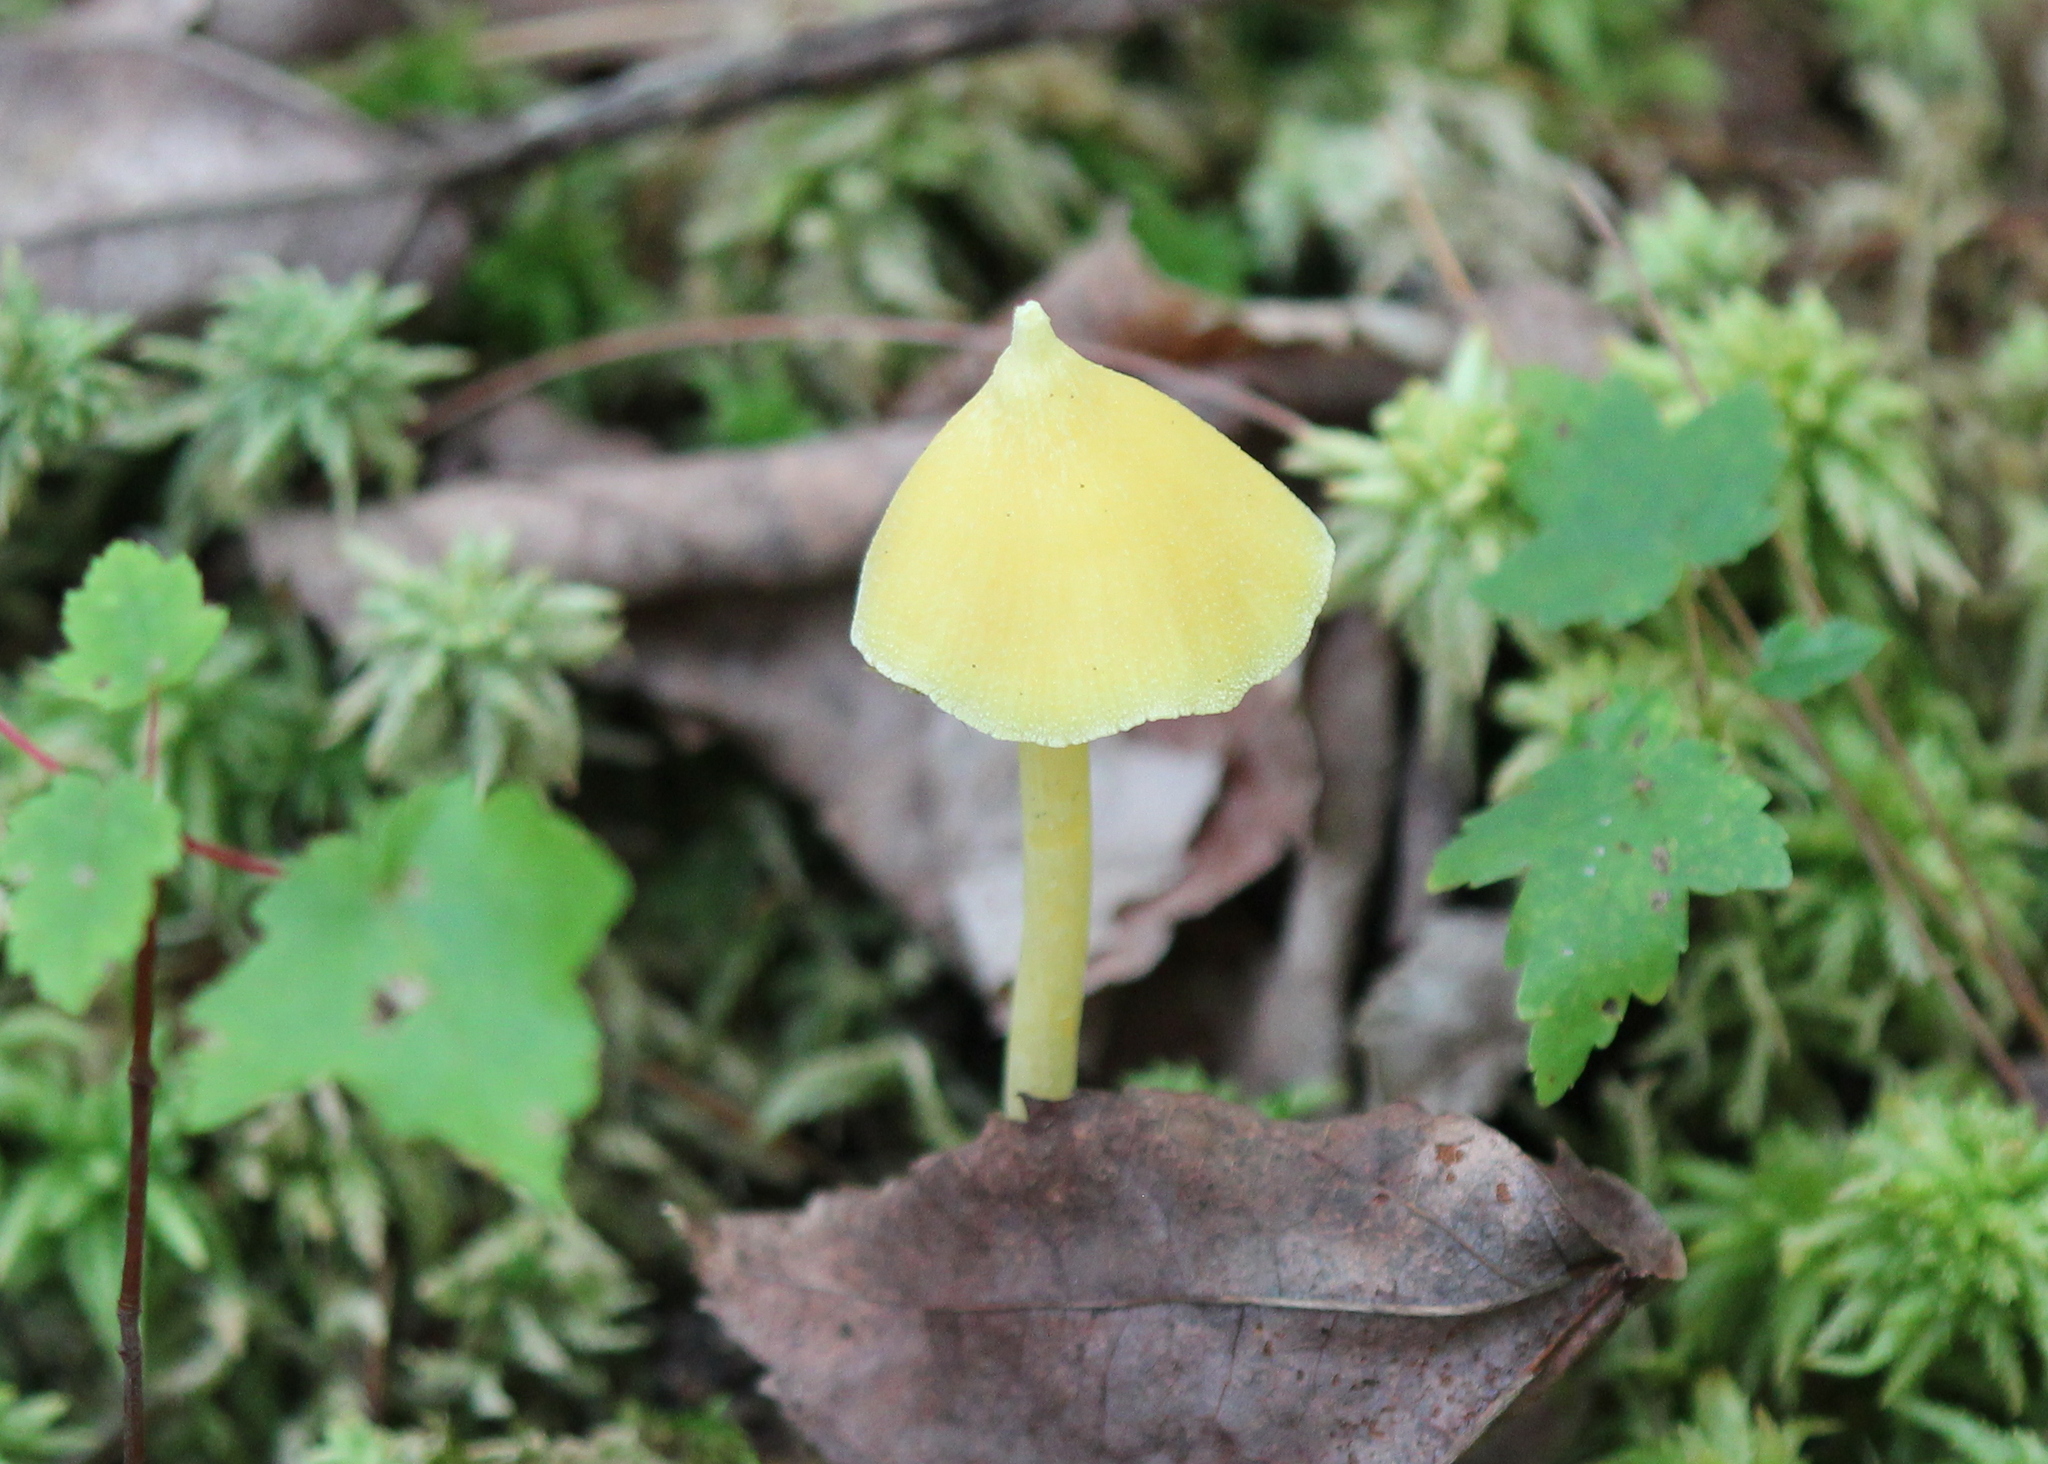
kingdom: Fungi
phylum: Basidiomycota
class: Agaricomycetes
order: Agaricales
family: Entolomataceae
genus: Entoloma
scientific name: Entoloma murrayi
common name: Yellow unicorn entoloma
